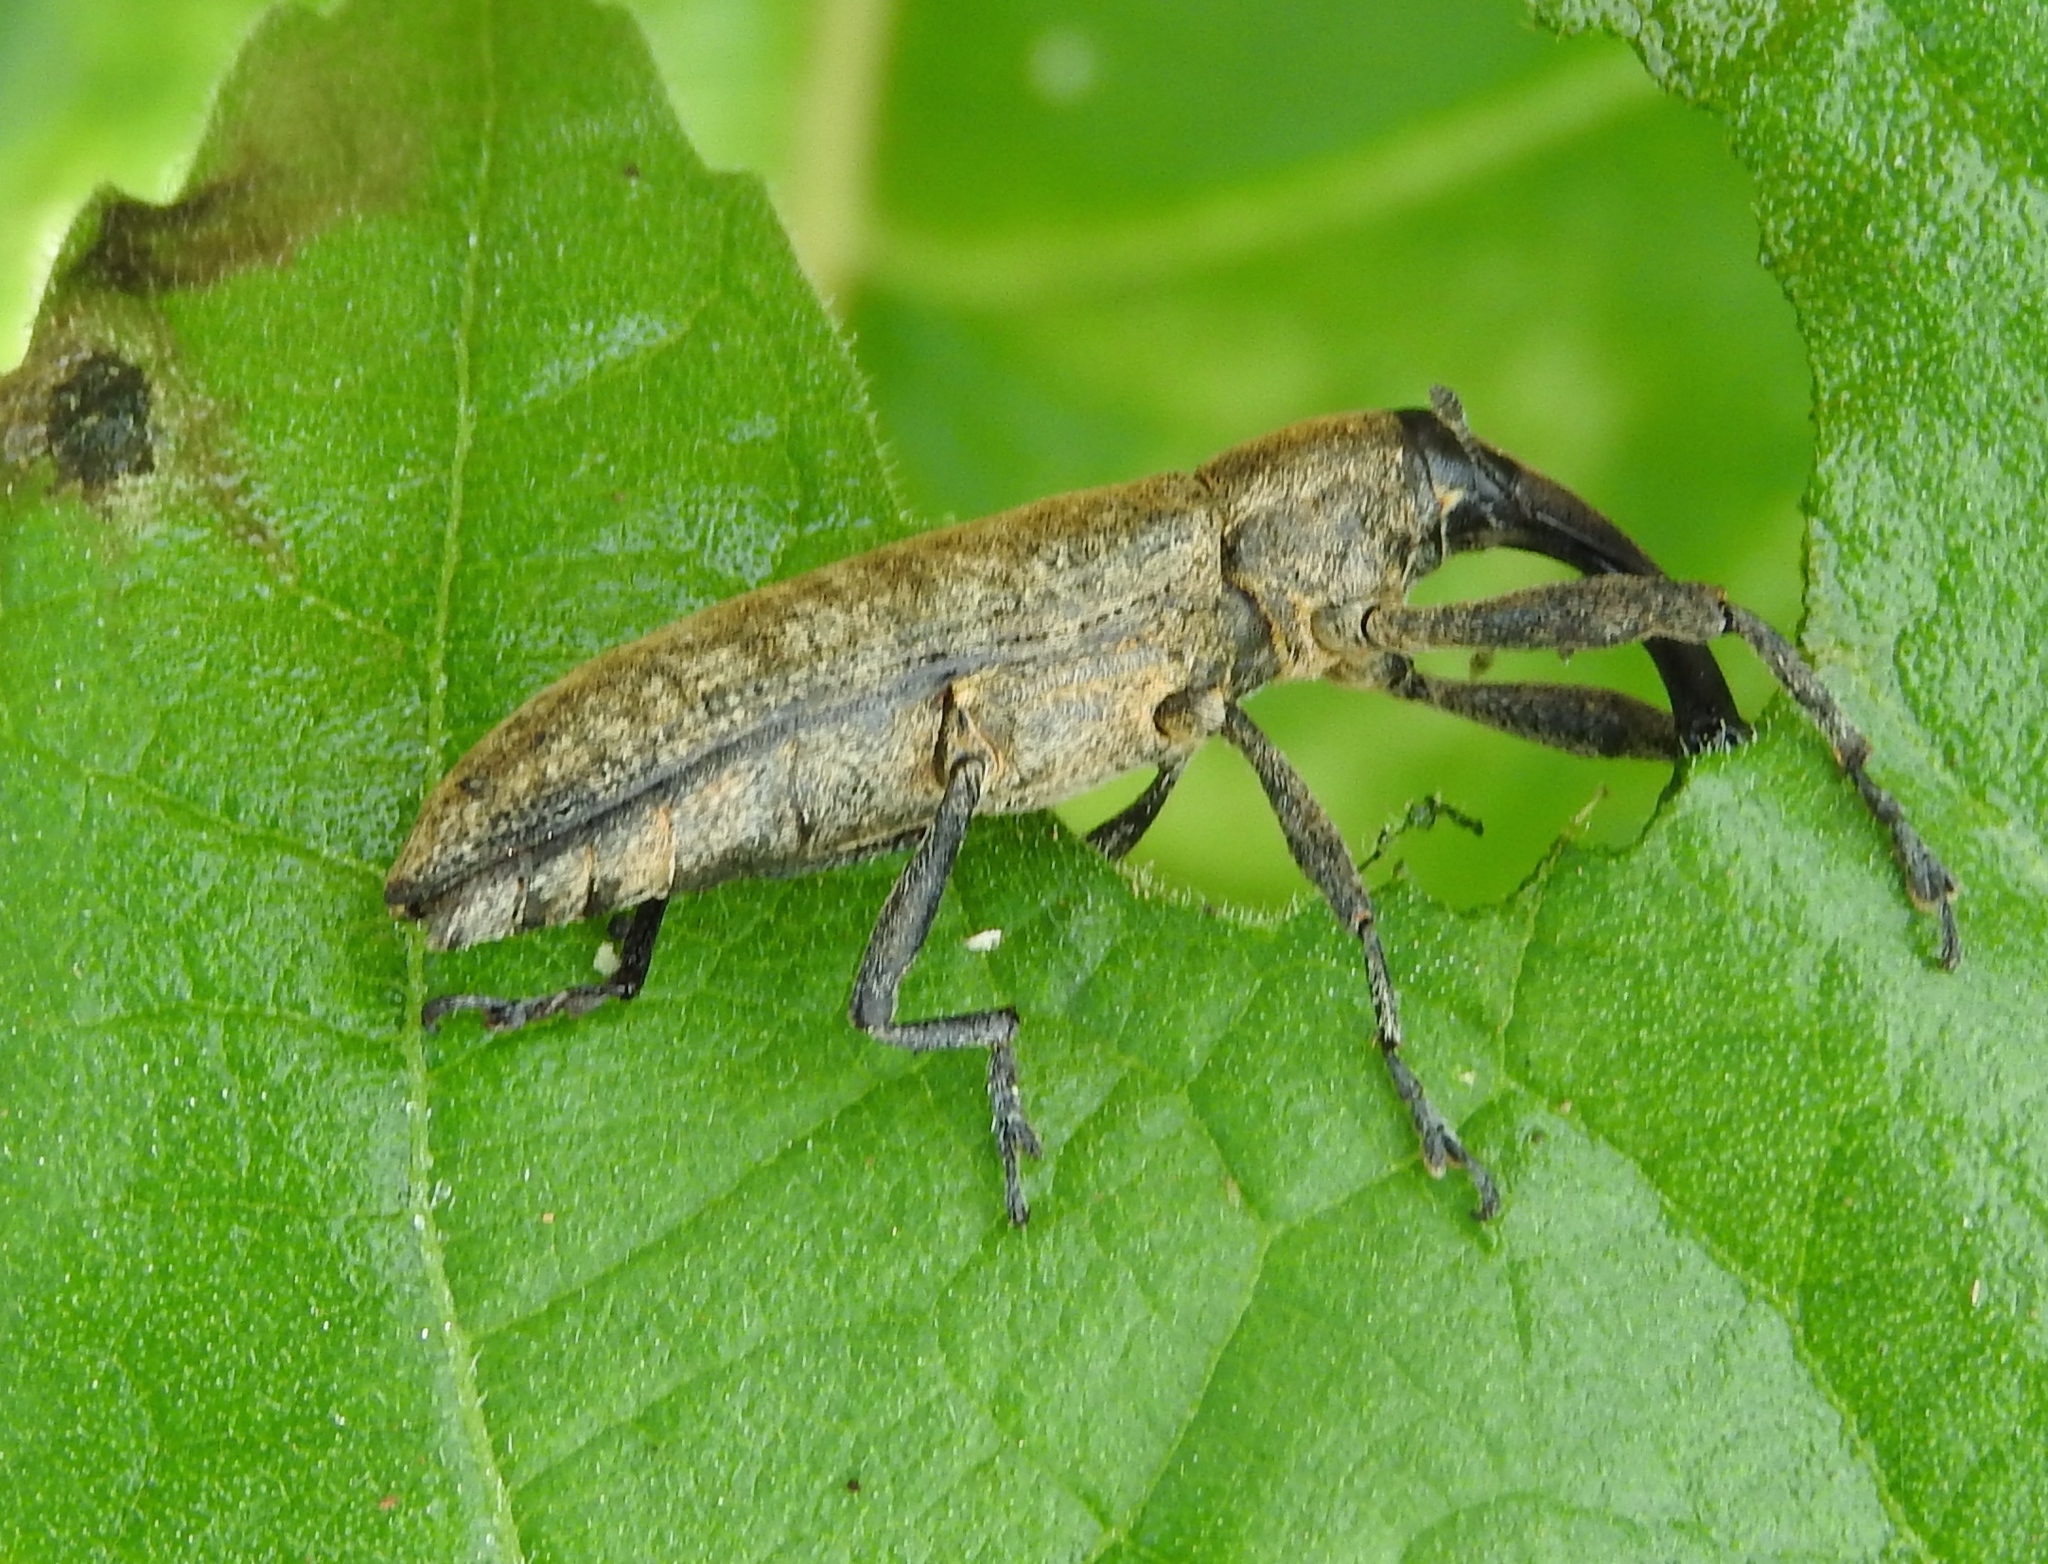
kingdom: Animalia
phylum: Arthropoda
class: Insecta
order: Coleoptera
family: Curculionidae
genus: Lixus
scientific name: Lixus
